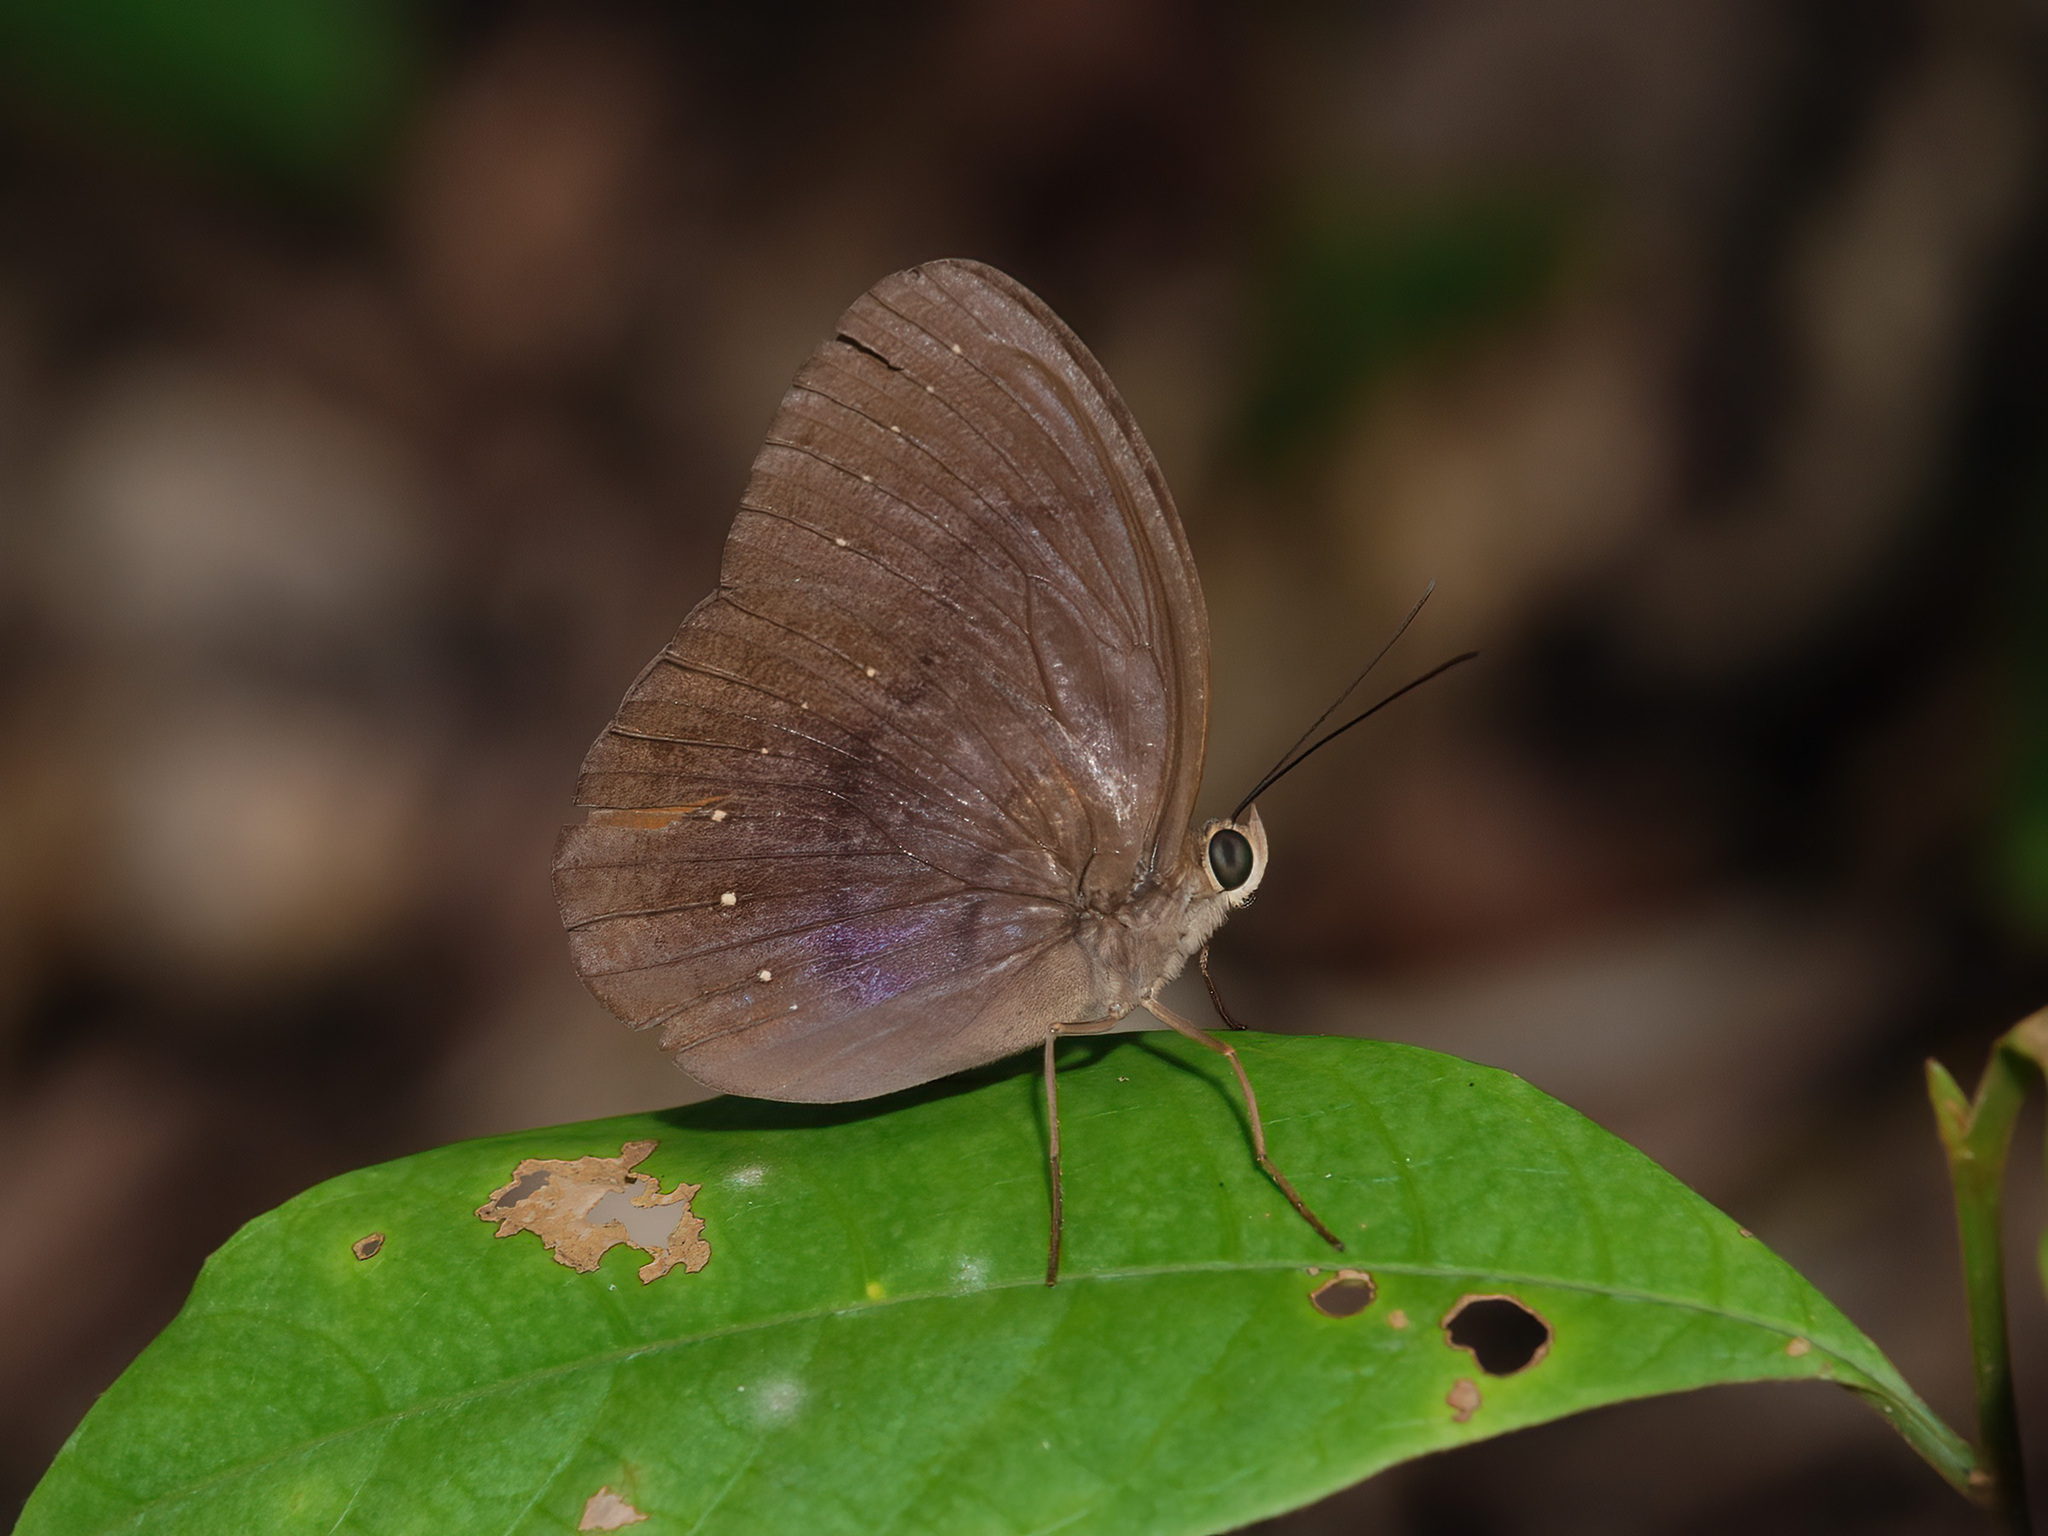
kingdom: Animalia
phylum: Arthropoda
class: Insecta
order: Lepidoptera
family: Nymphalidae
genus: Faunis
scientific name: Faunis canens
